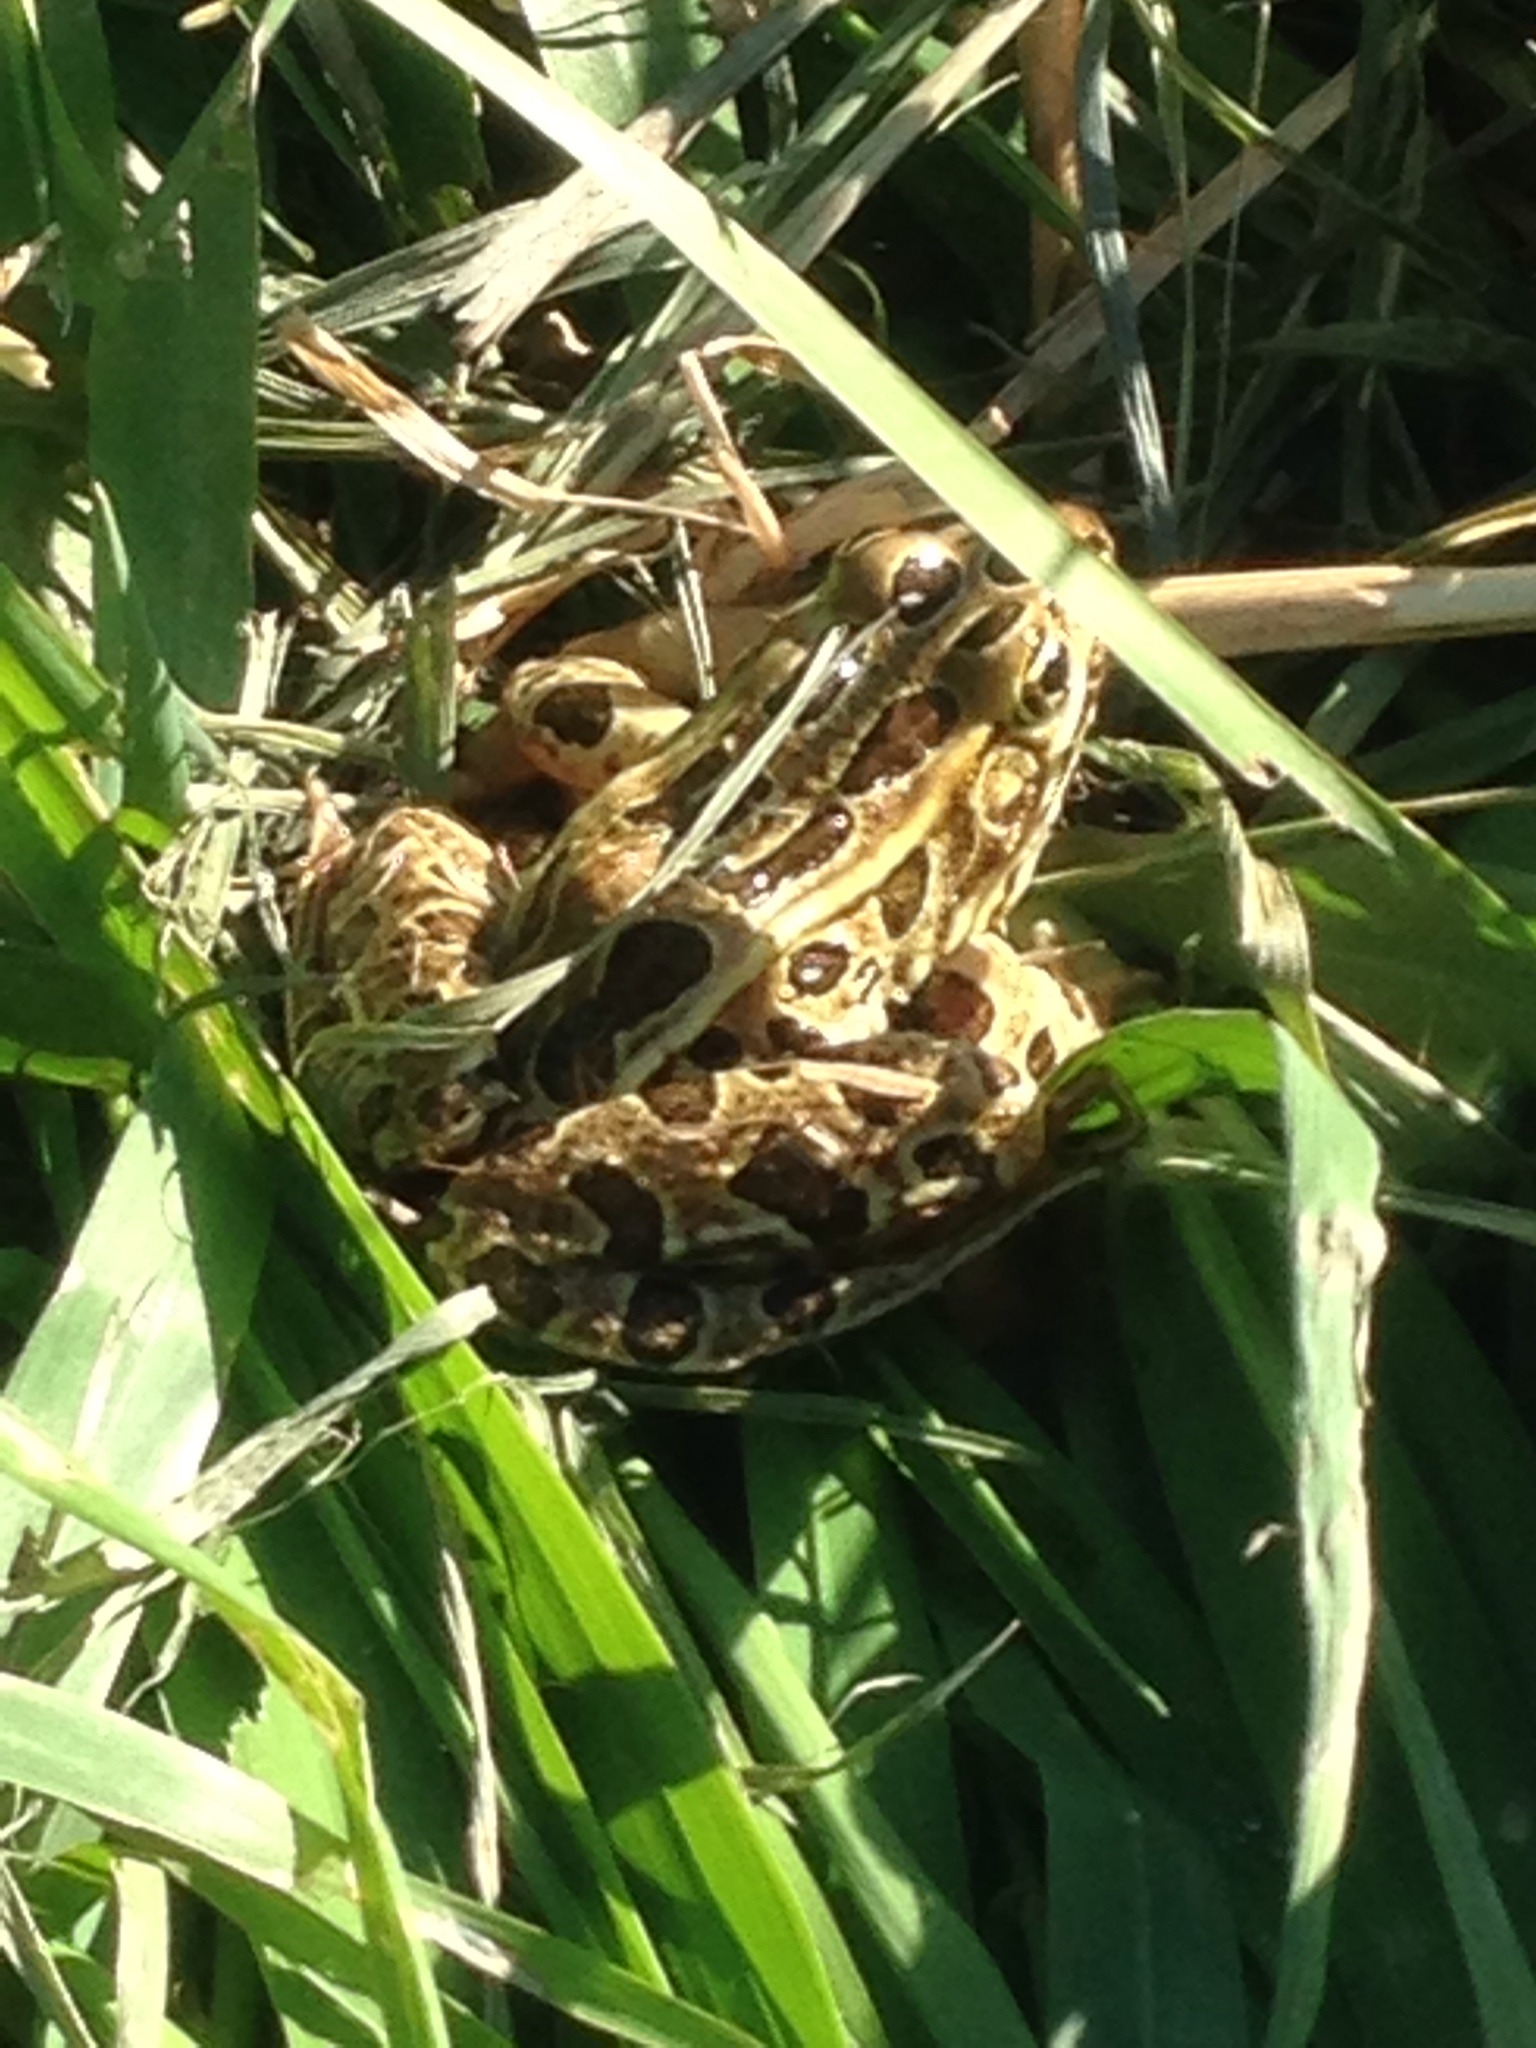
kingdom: Animalia
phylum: Chordata
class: Amphibia
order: Anura
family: Ranidae
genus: Lithobates
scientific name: Lithobates pipiens
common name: Northern leopard frog
